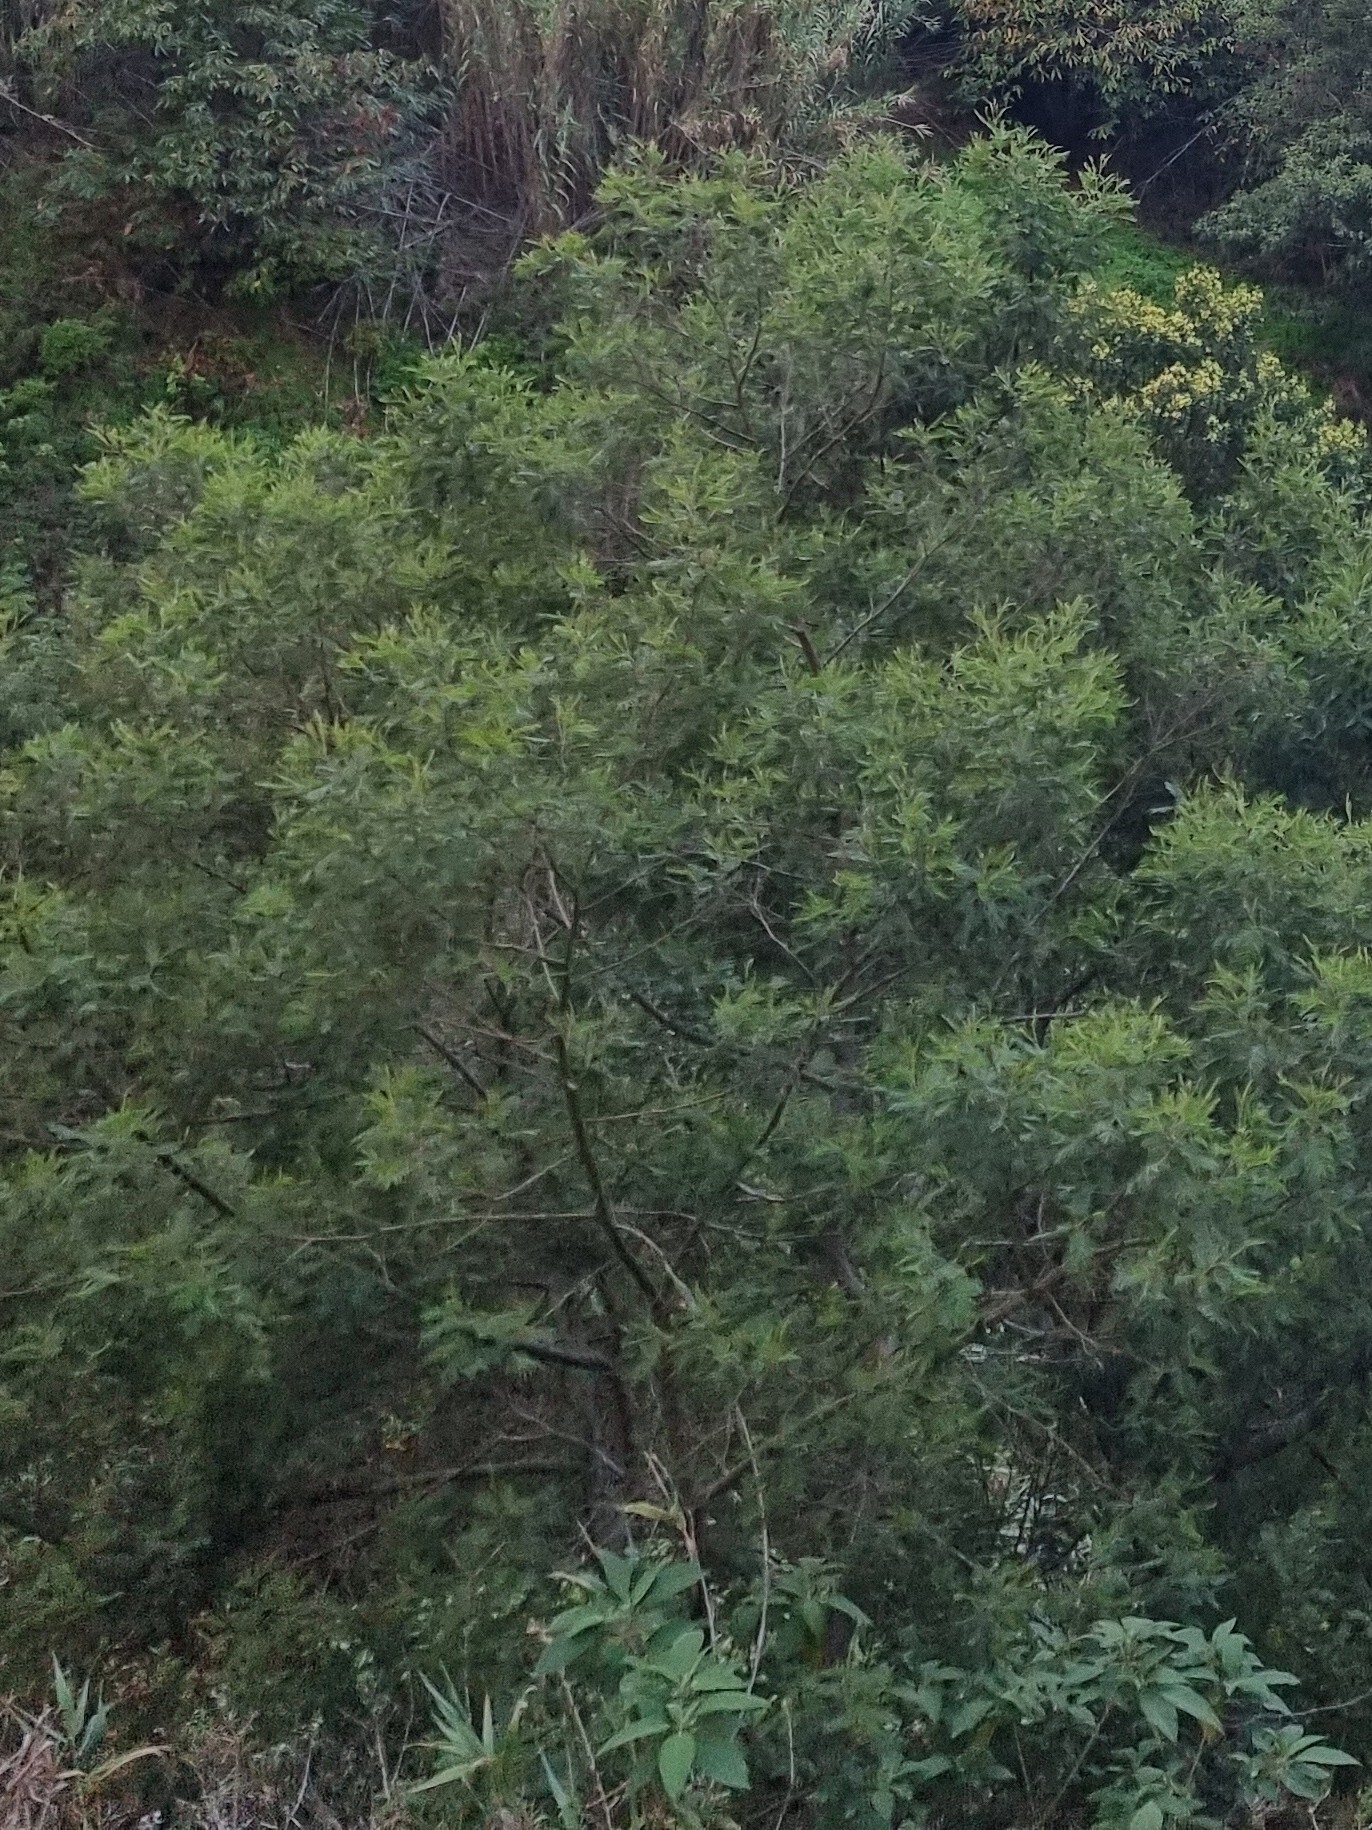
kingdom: Plantae
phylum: Tracheophyta
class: Magnoliopsida
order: Fabales
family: Fabaceae
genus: Acacia
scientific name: Acacia mearnsii
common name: Black wattle
